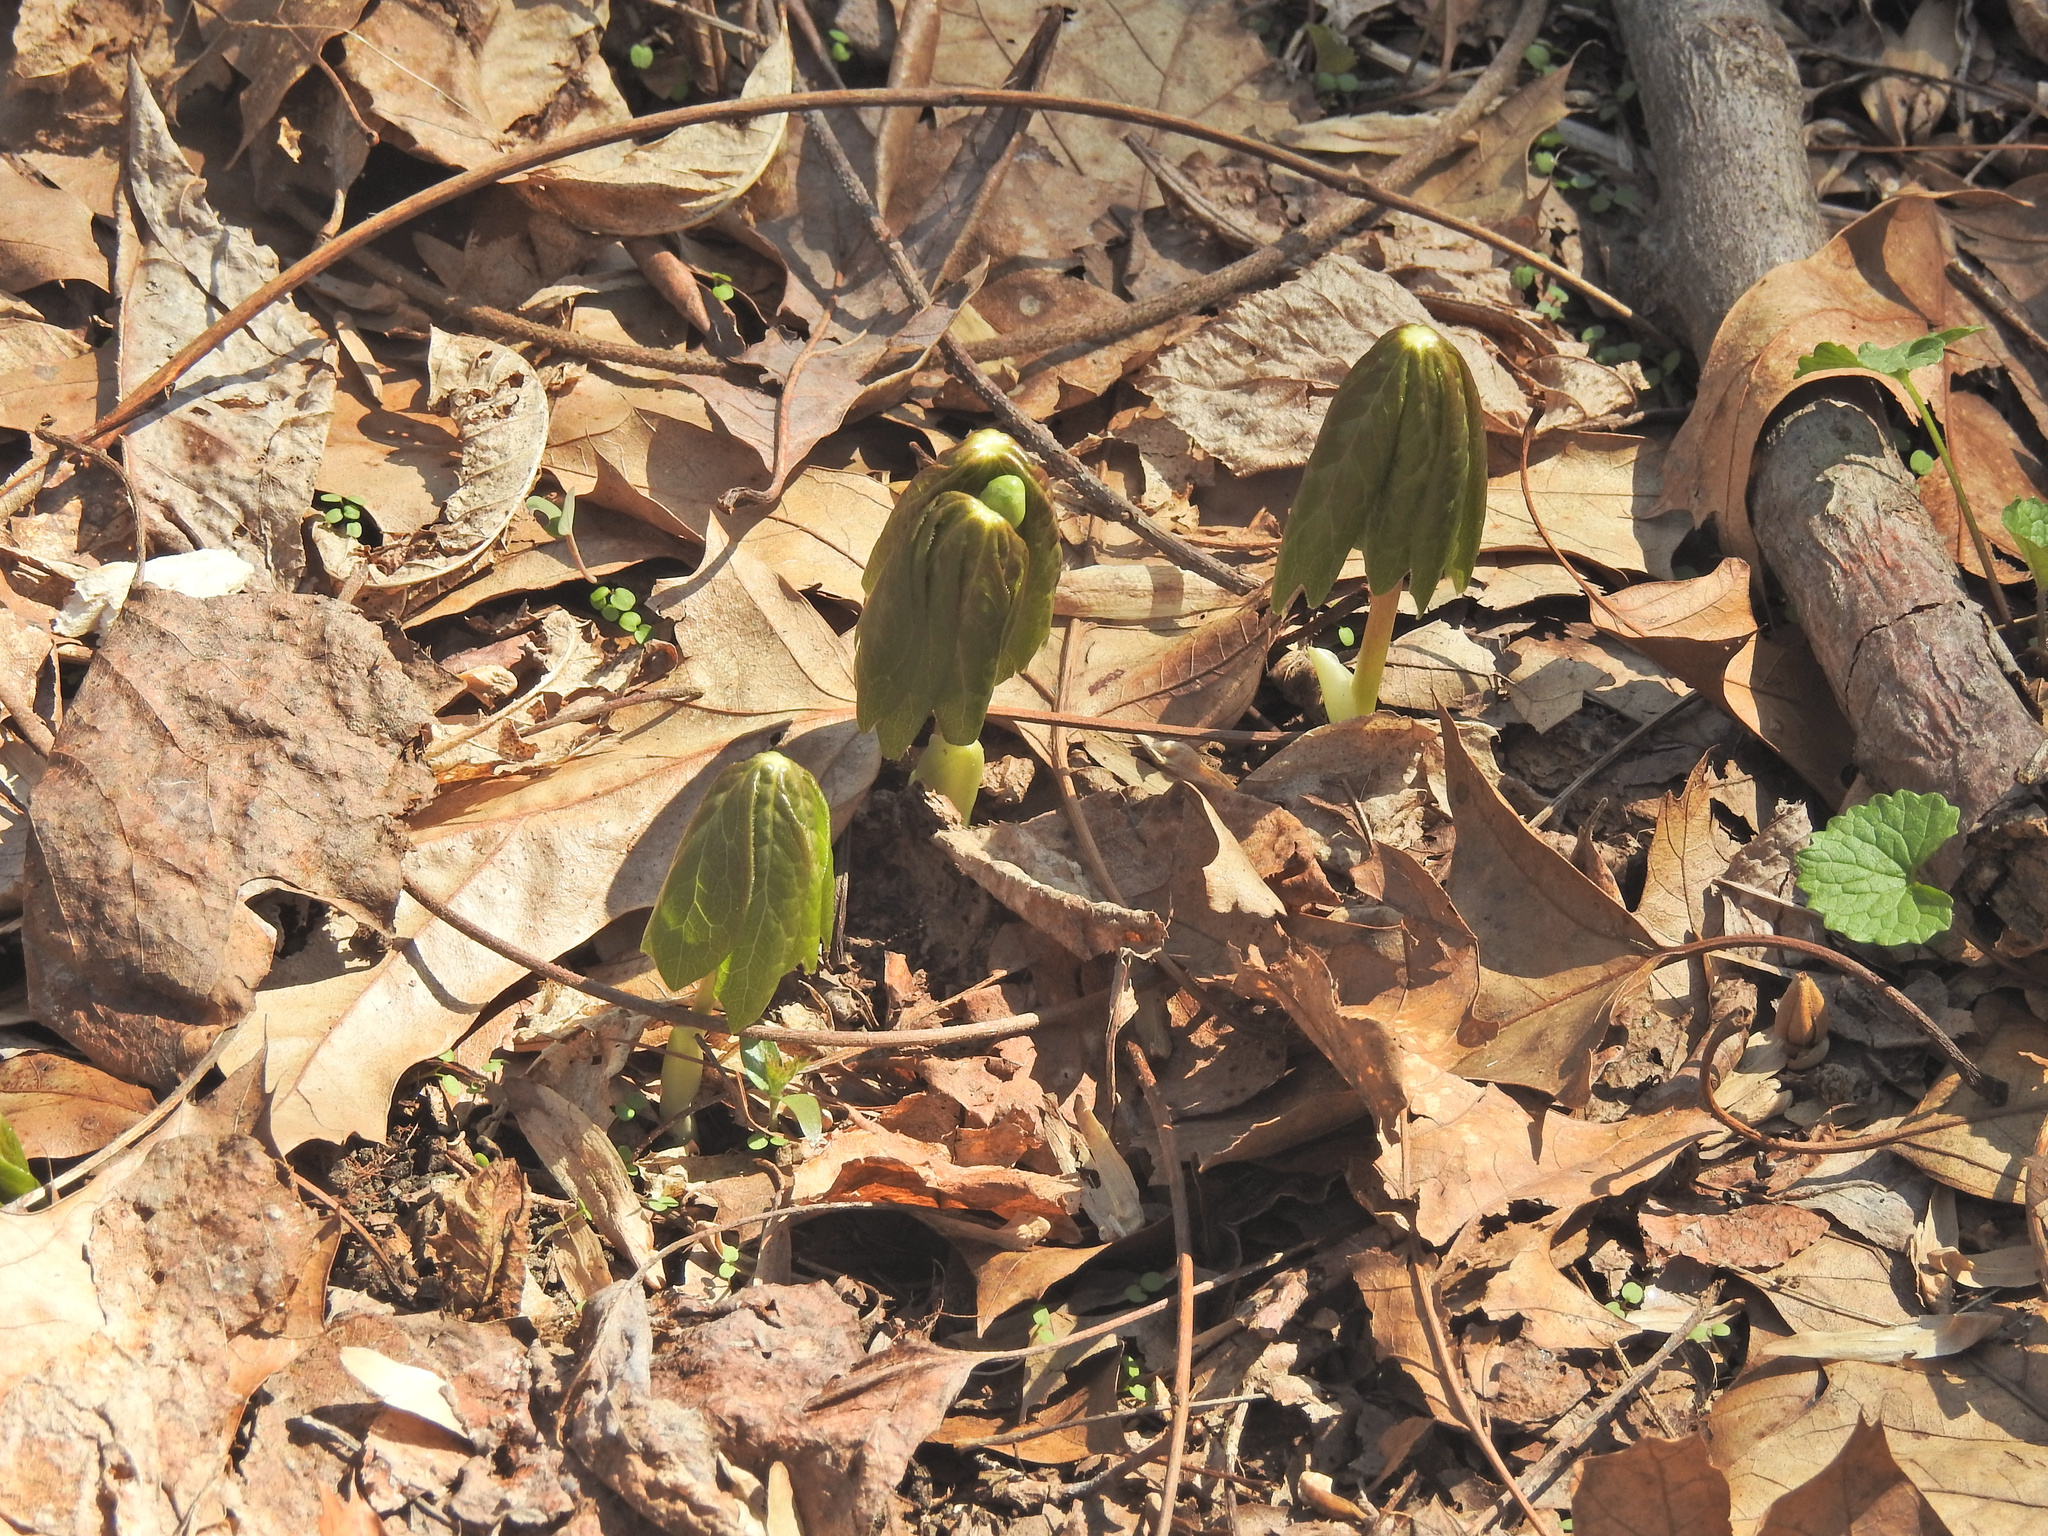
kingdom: Plantae
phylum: Tracheophyta
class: Magnoliopsida
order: Ranunculales
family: Berberidaceae
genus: Podophyllum
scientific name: Podophyllum peltatum
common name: Wild mandrake
